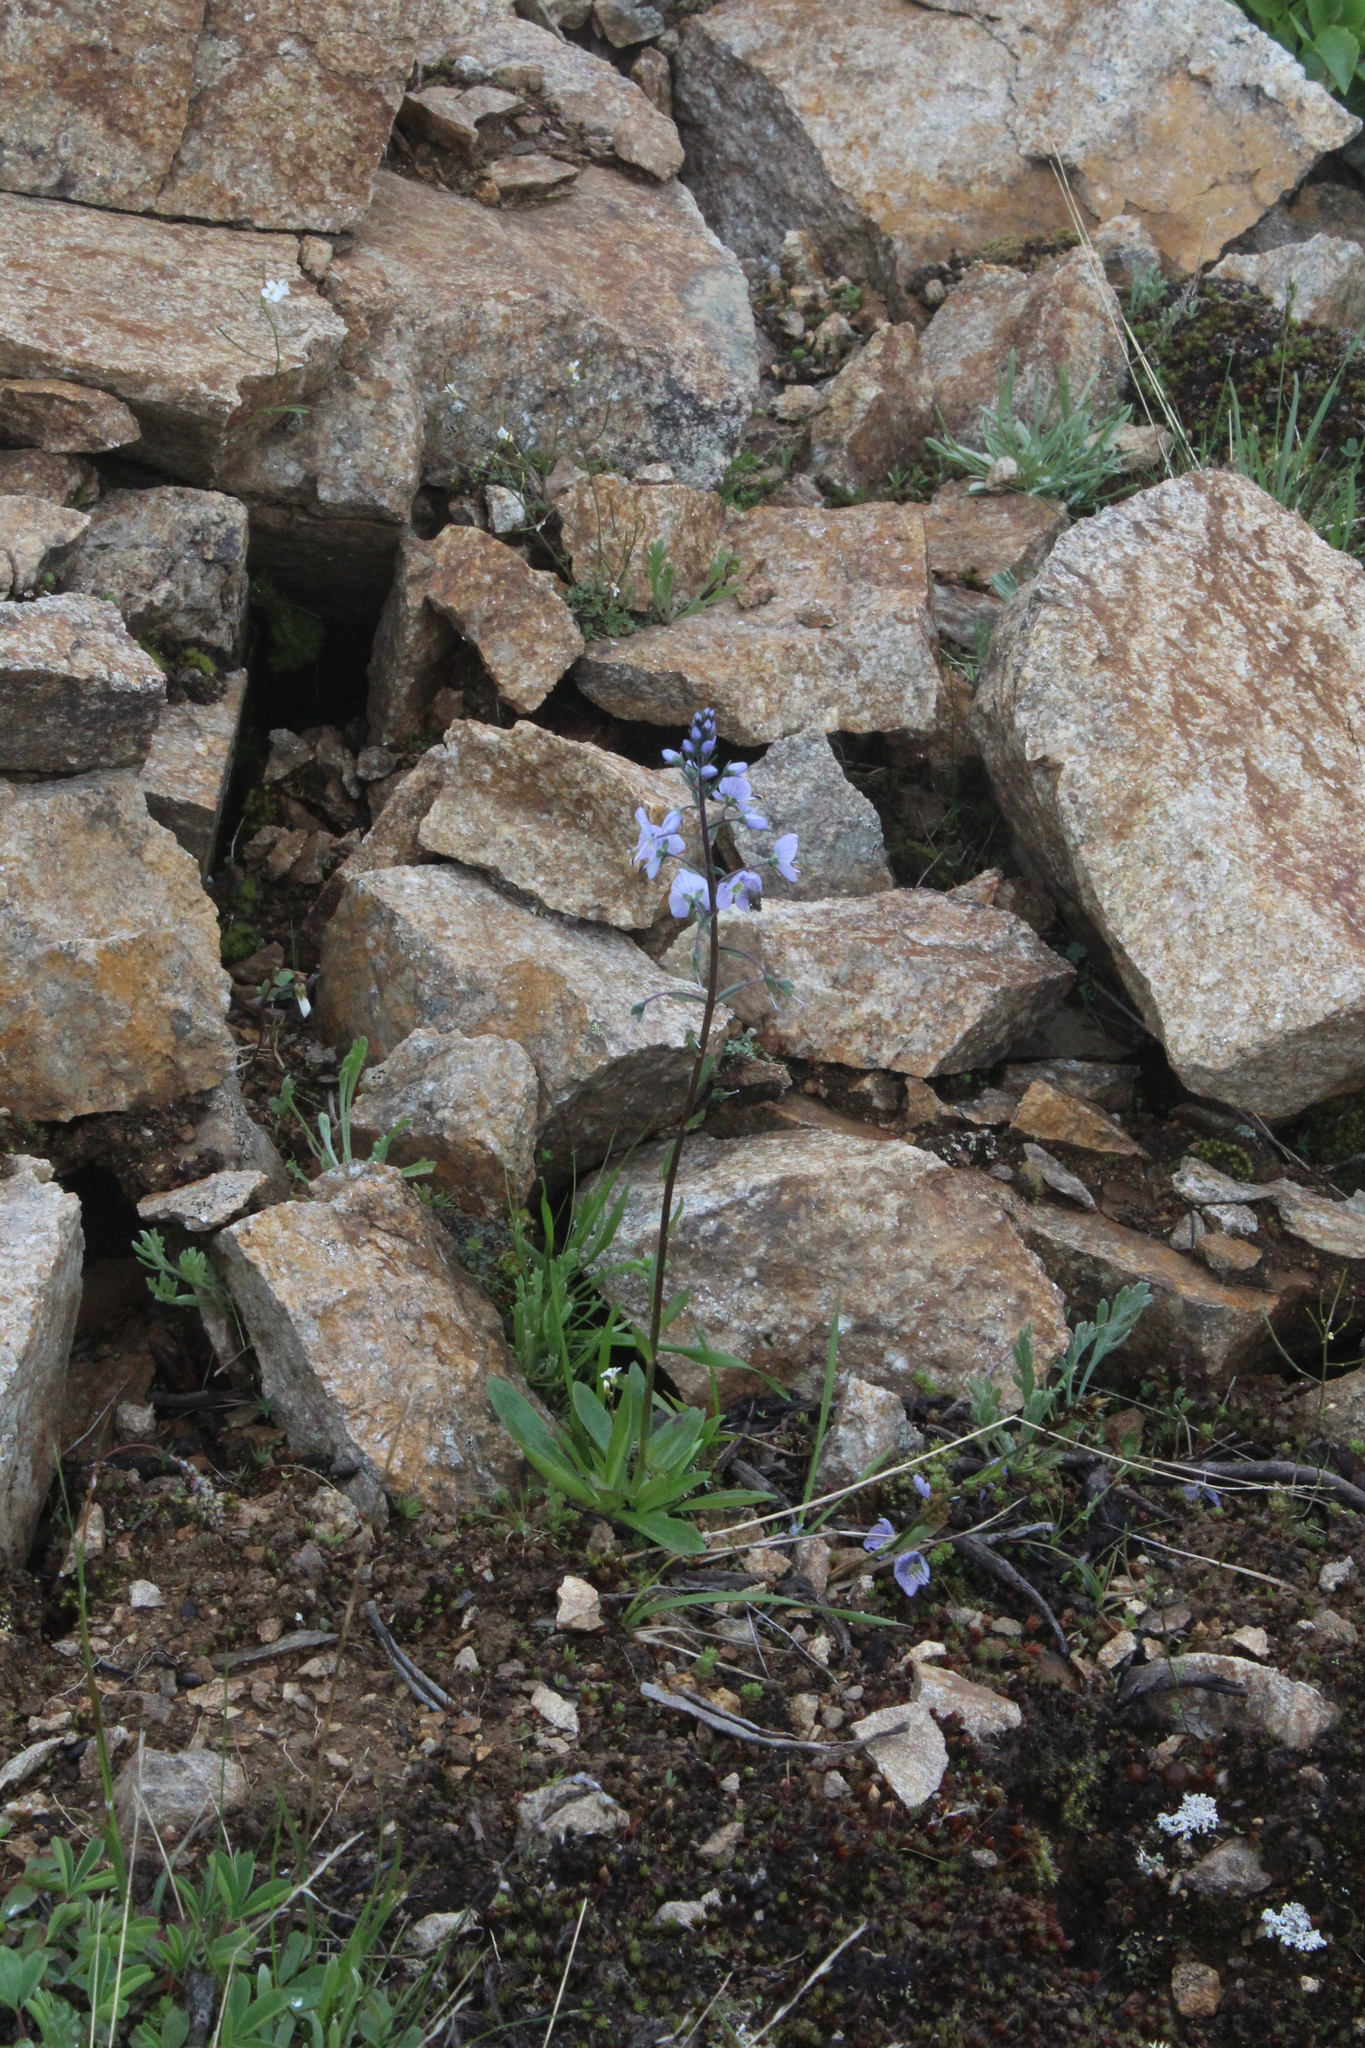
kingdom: Plantae
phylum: Tracheophyta
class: Magnoliopsida
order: Lamiales
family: Plantaginaceae
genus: Veronica
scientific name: Veronica gentianoides
